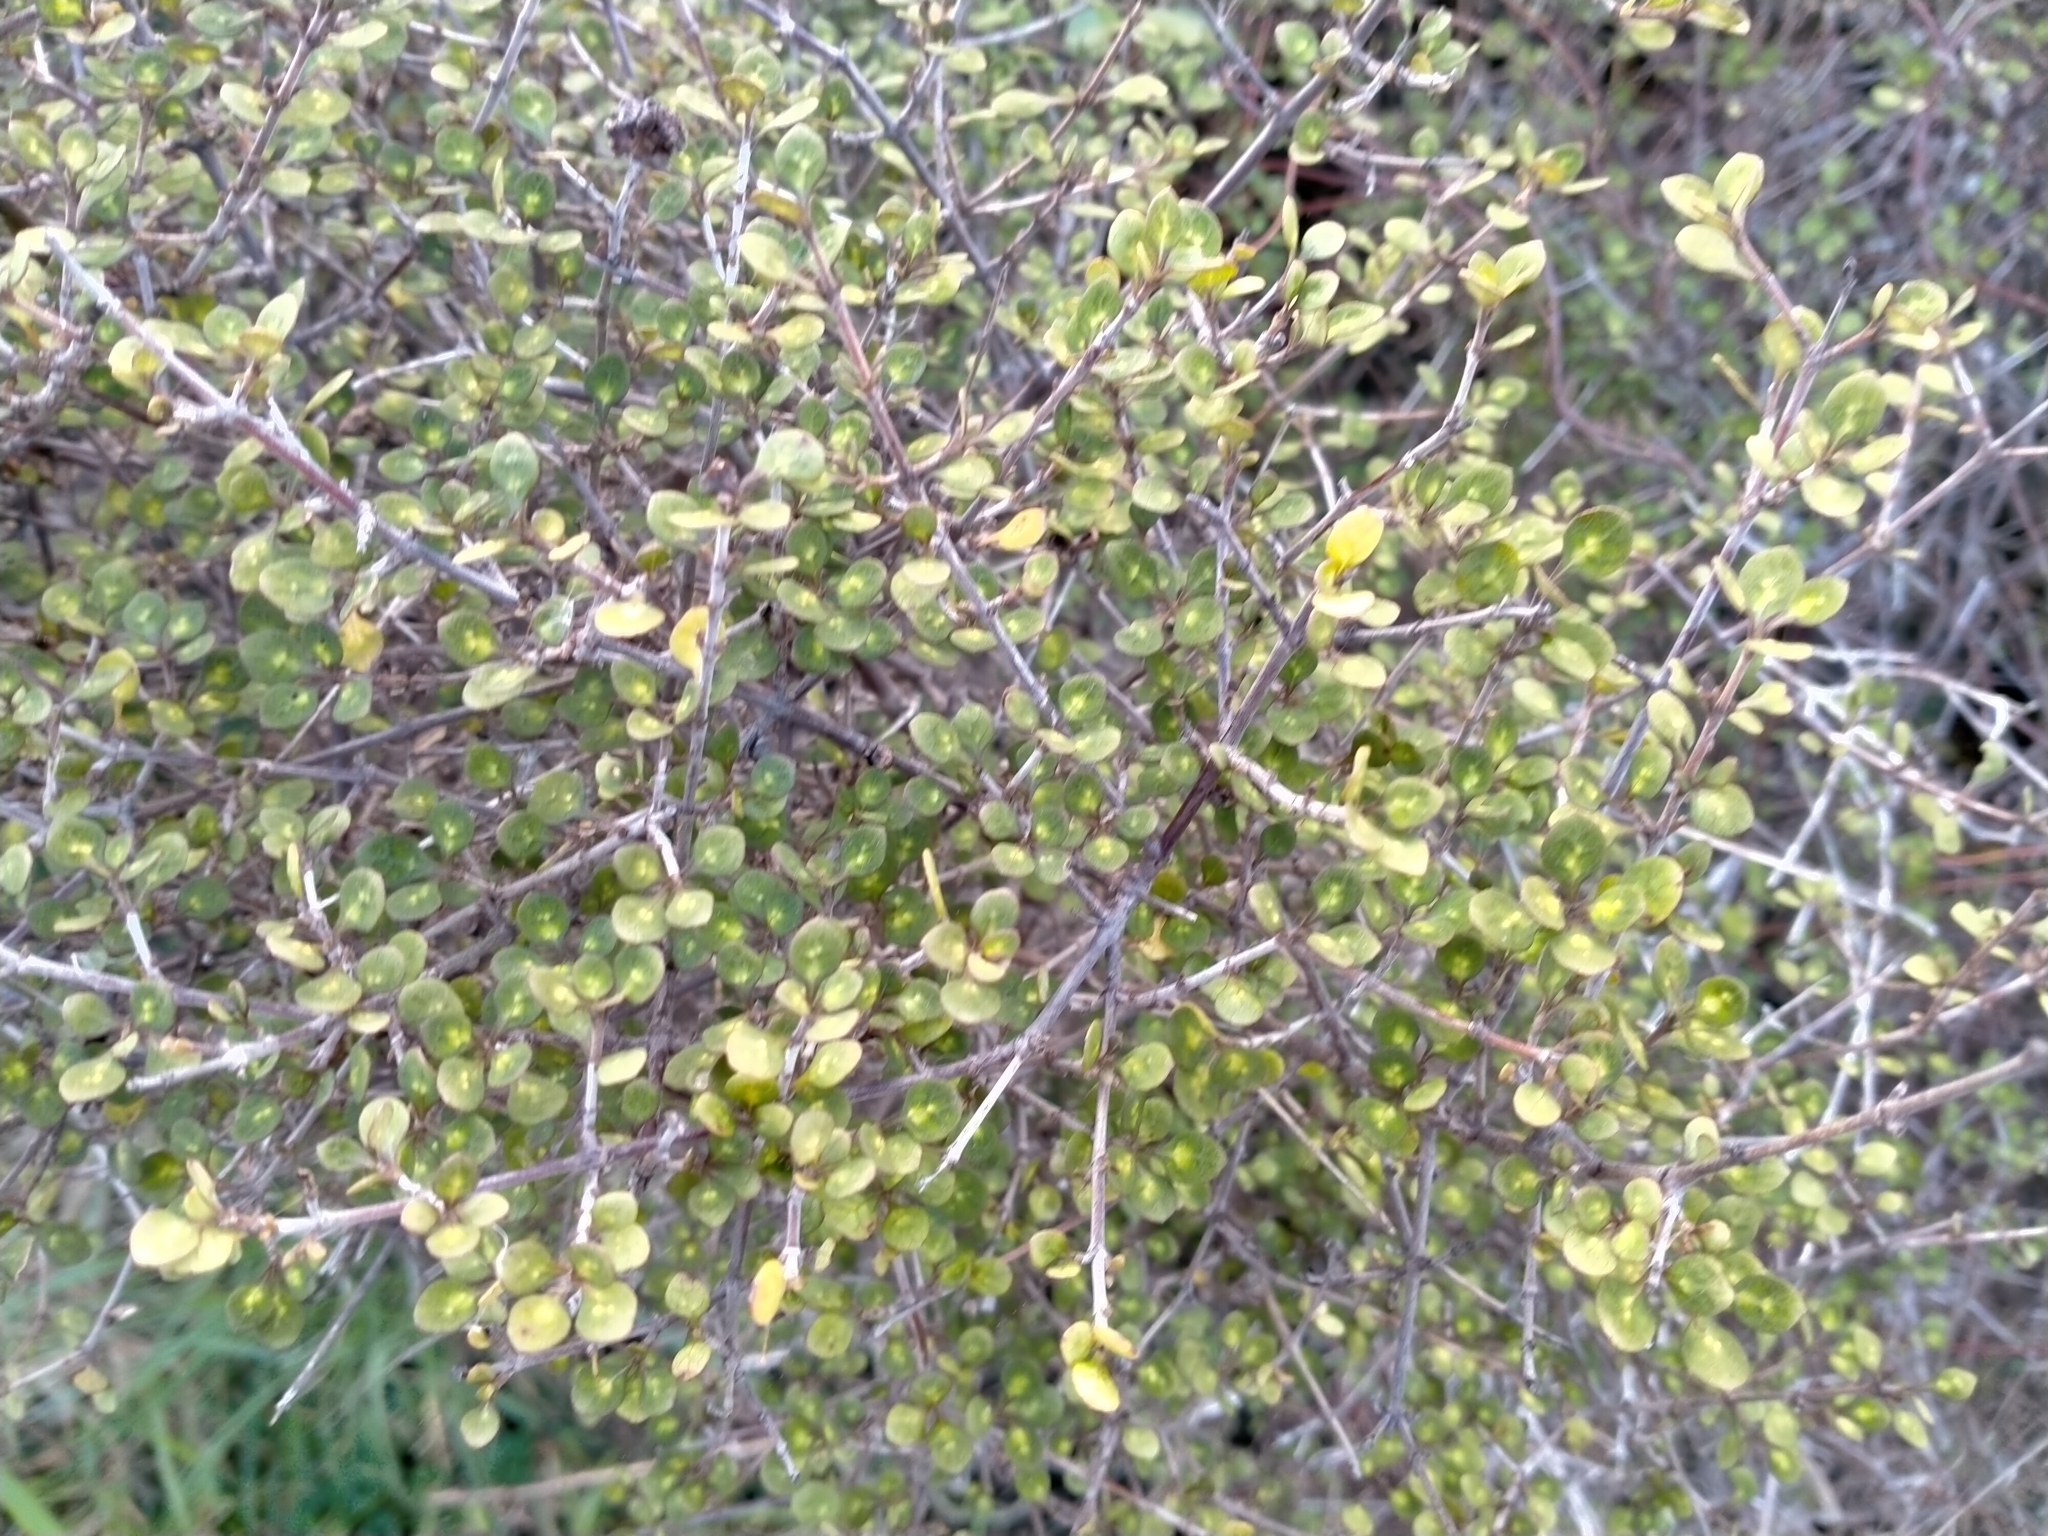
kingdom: Plantae
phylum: Tracheophyta
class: Magnoliopsida
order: Gentianales
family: Rubiaceae
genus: Coprosma
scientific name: Coprosma tenuicaulis
